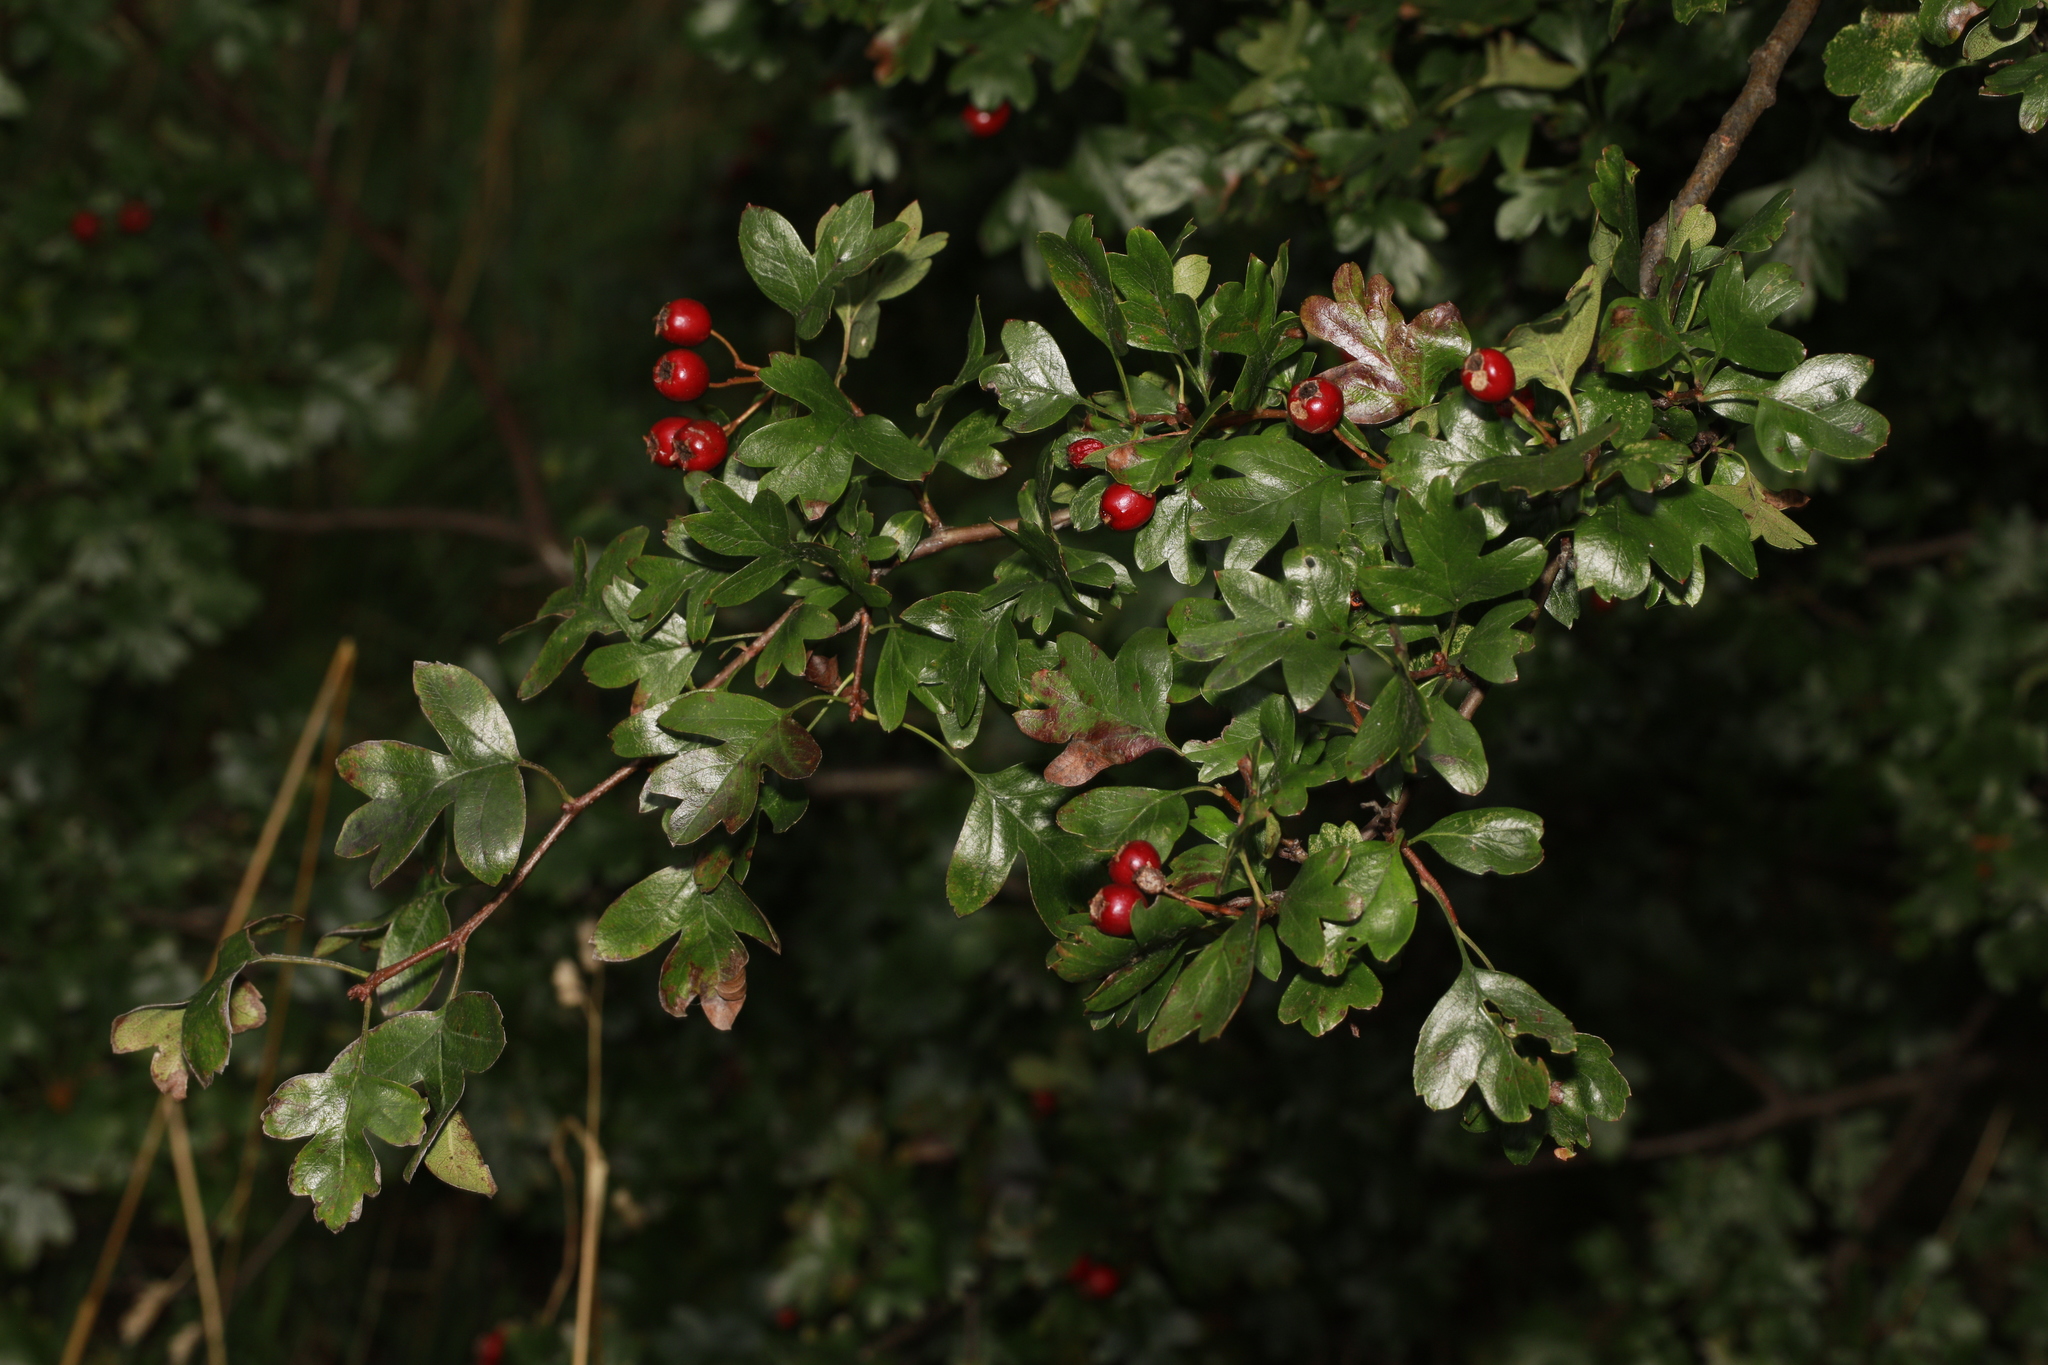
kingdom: Plantae
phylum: Tracheophyta
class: Magnoliopsida
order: Rosales
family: Rosaceae
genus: Crataegus
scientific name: Crataegus monogyna
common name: Hawthorn
